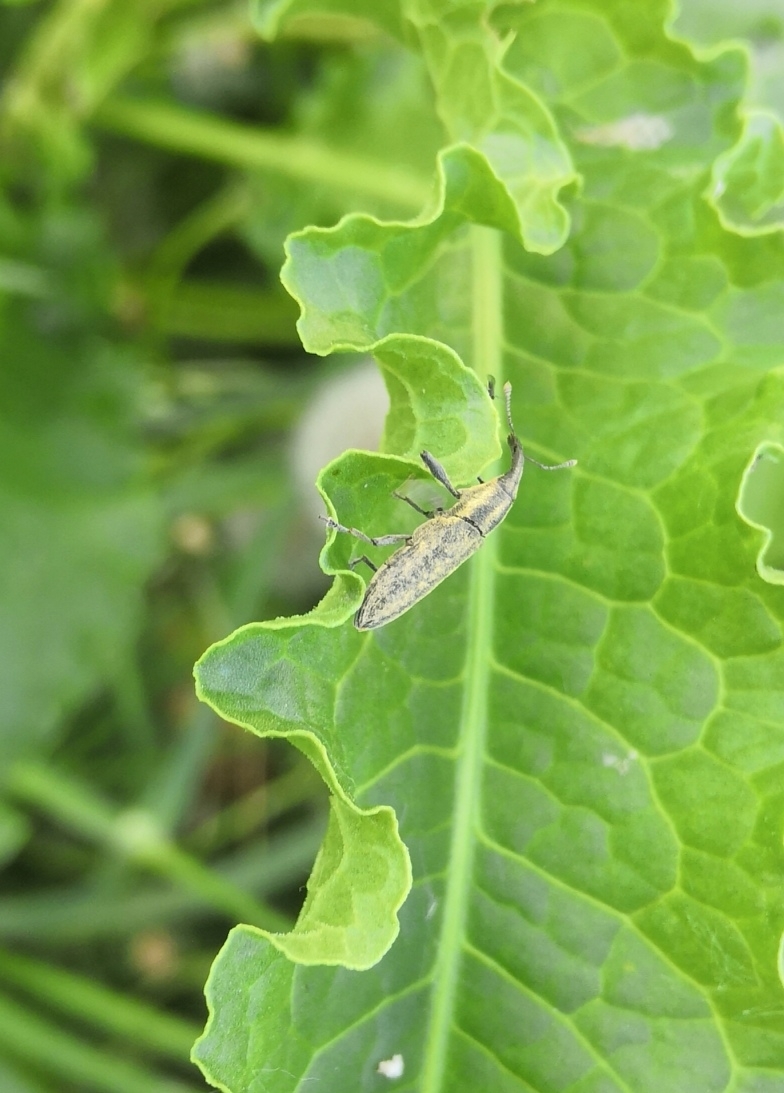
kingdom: Animalia
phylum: Arthropoda
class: Insecta
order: Coleoptera
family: Curculionidae
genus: Lixus
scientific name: Lixus fasciculatus
